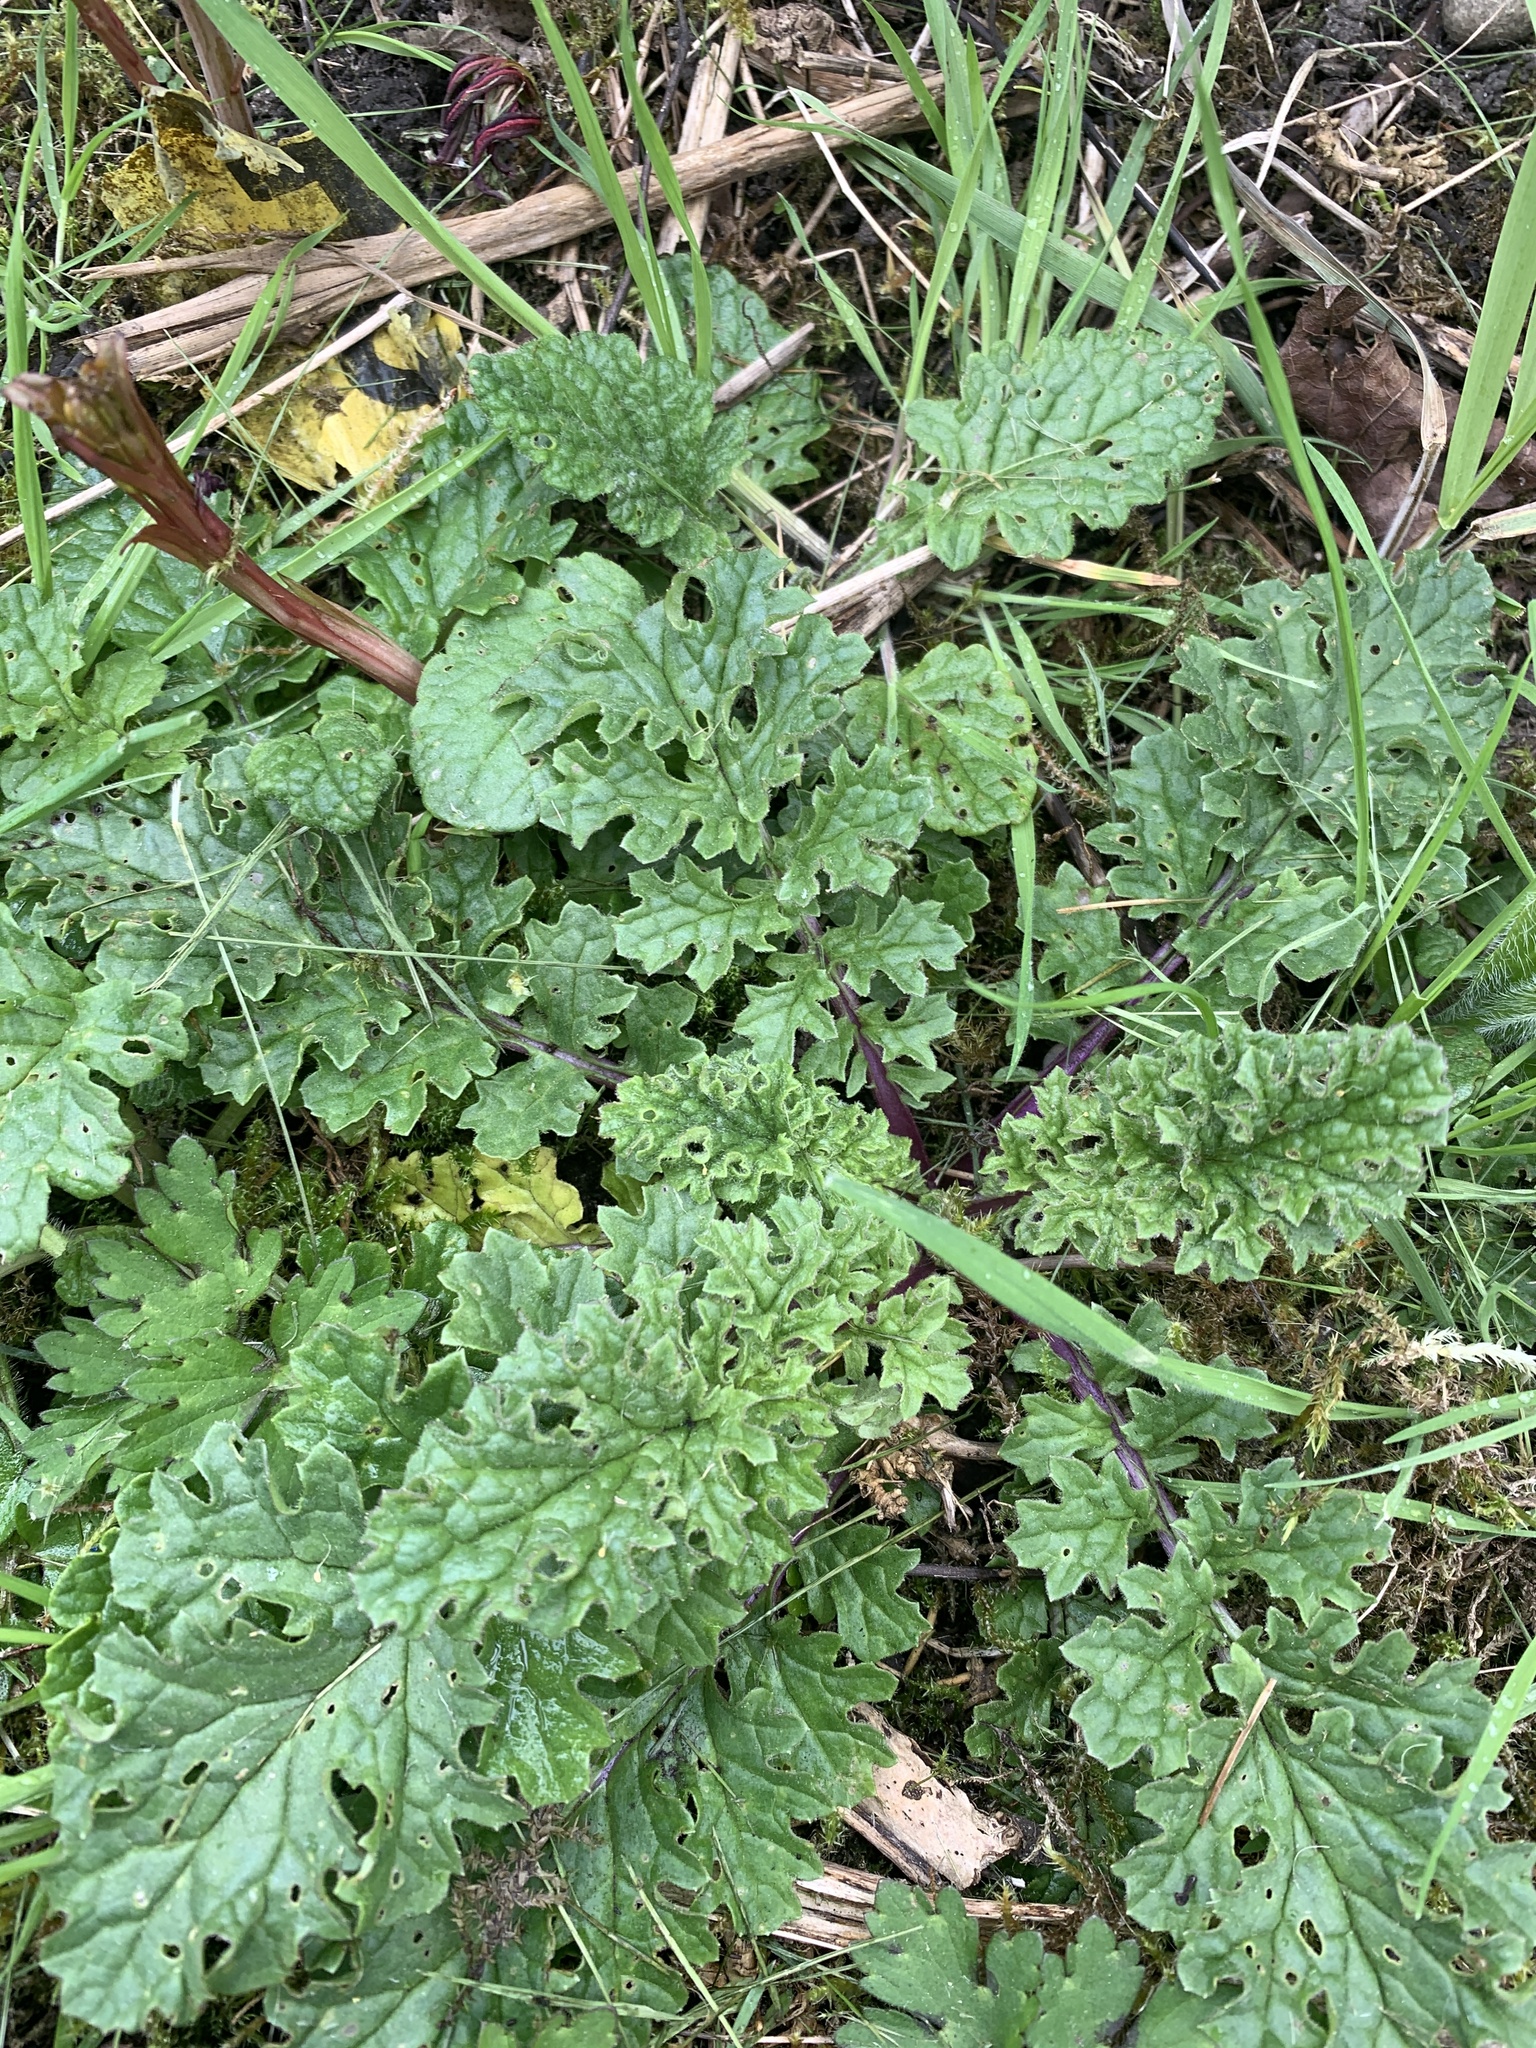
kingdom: Plantae
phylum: Tracheophyta
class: Magnoliopsida
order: Asterales
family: Asteraceae
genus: Jacobaea
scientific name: Jacobaea vulgaris
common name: Stinking willie
